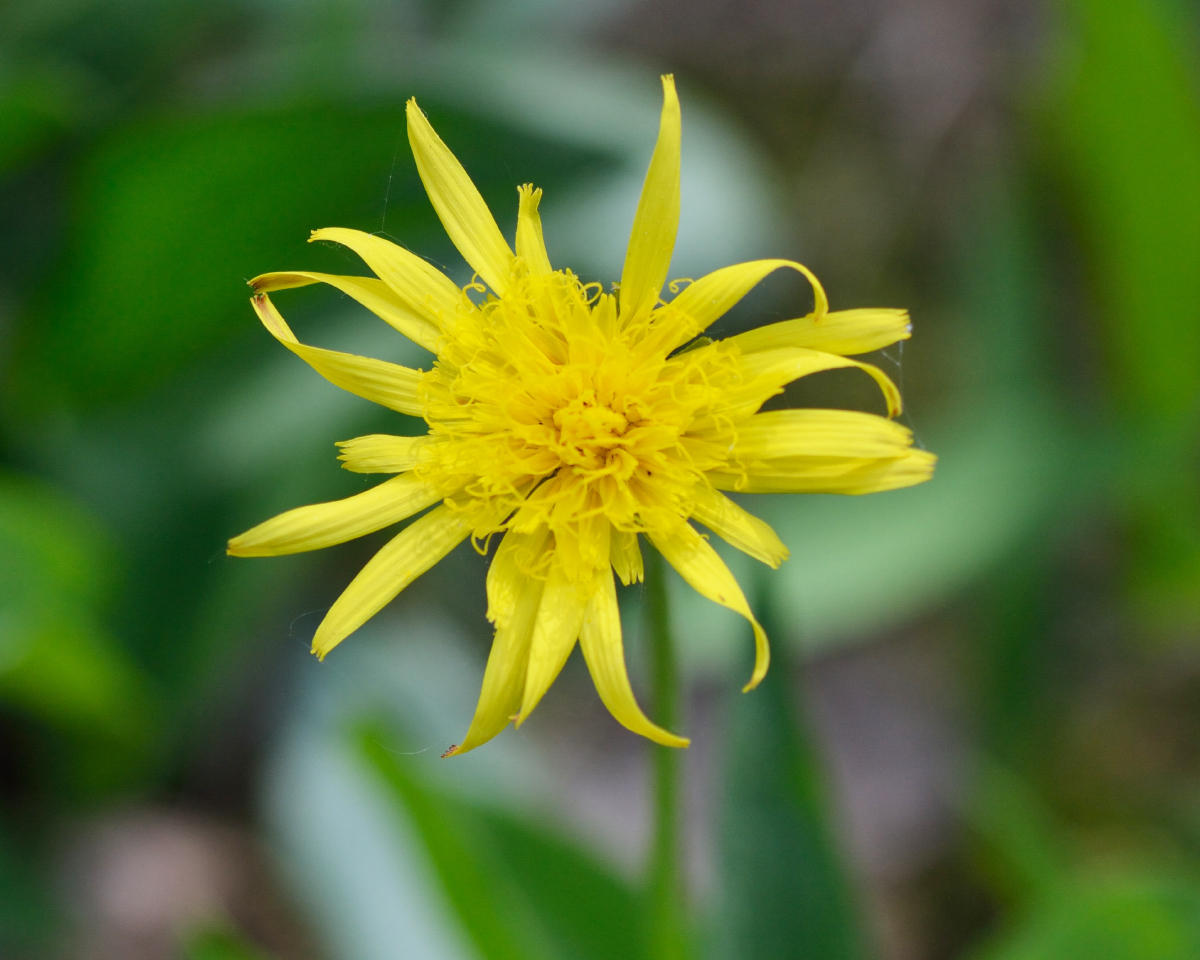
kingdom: Plantae
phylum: Tracheophyta
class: Magnoliopsida
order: Asterales
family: Asteraceae
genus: Scorzonera
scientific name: Scorzonera humilis
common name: Viper's-grass
